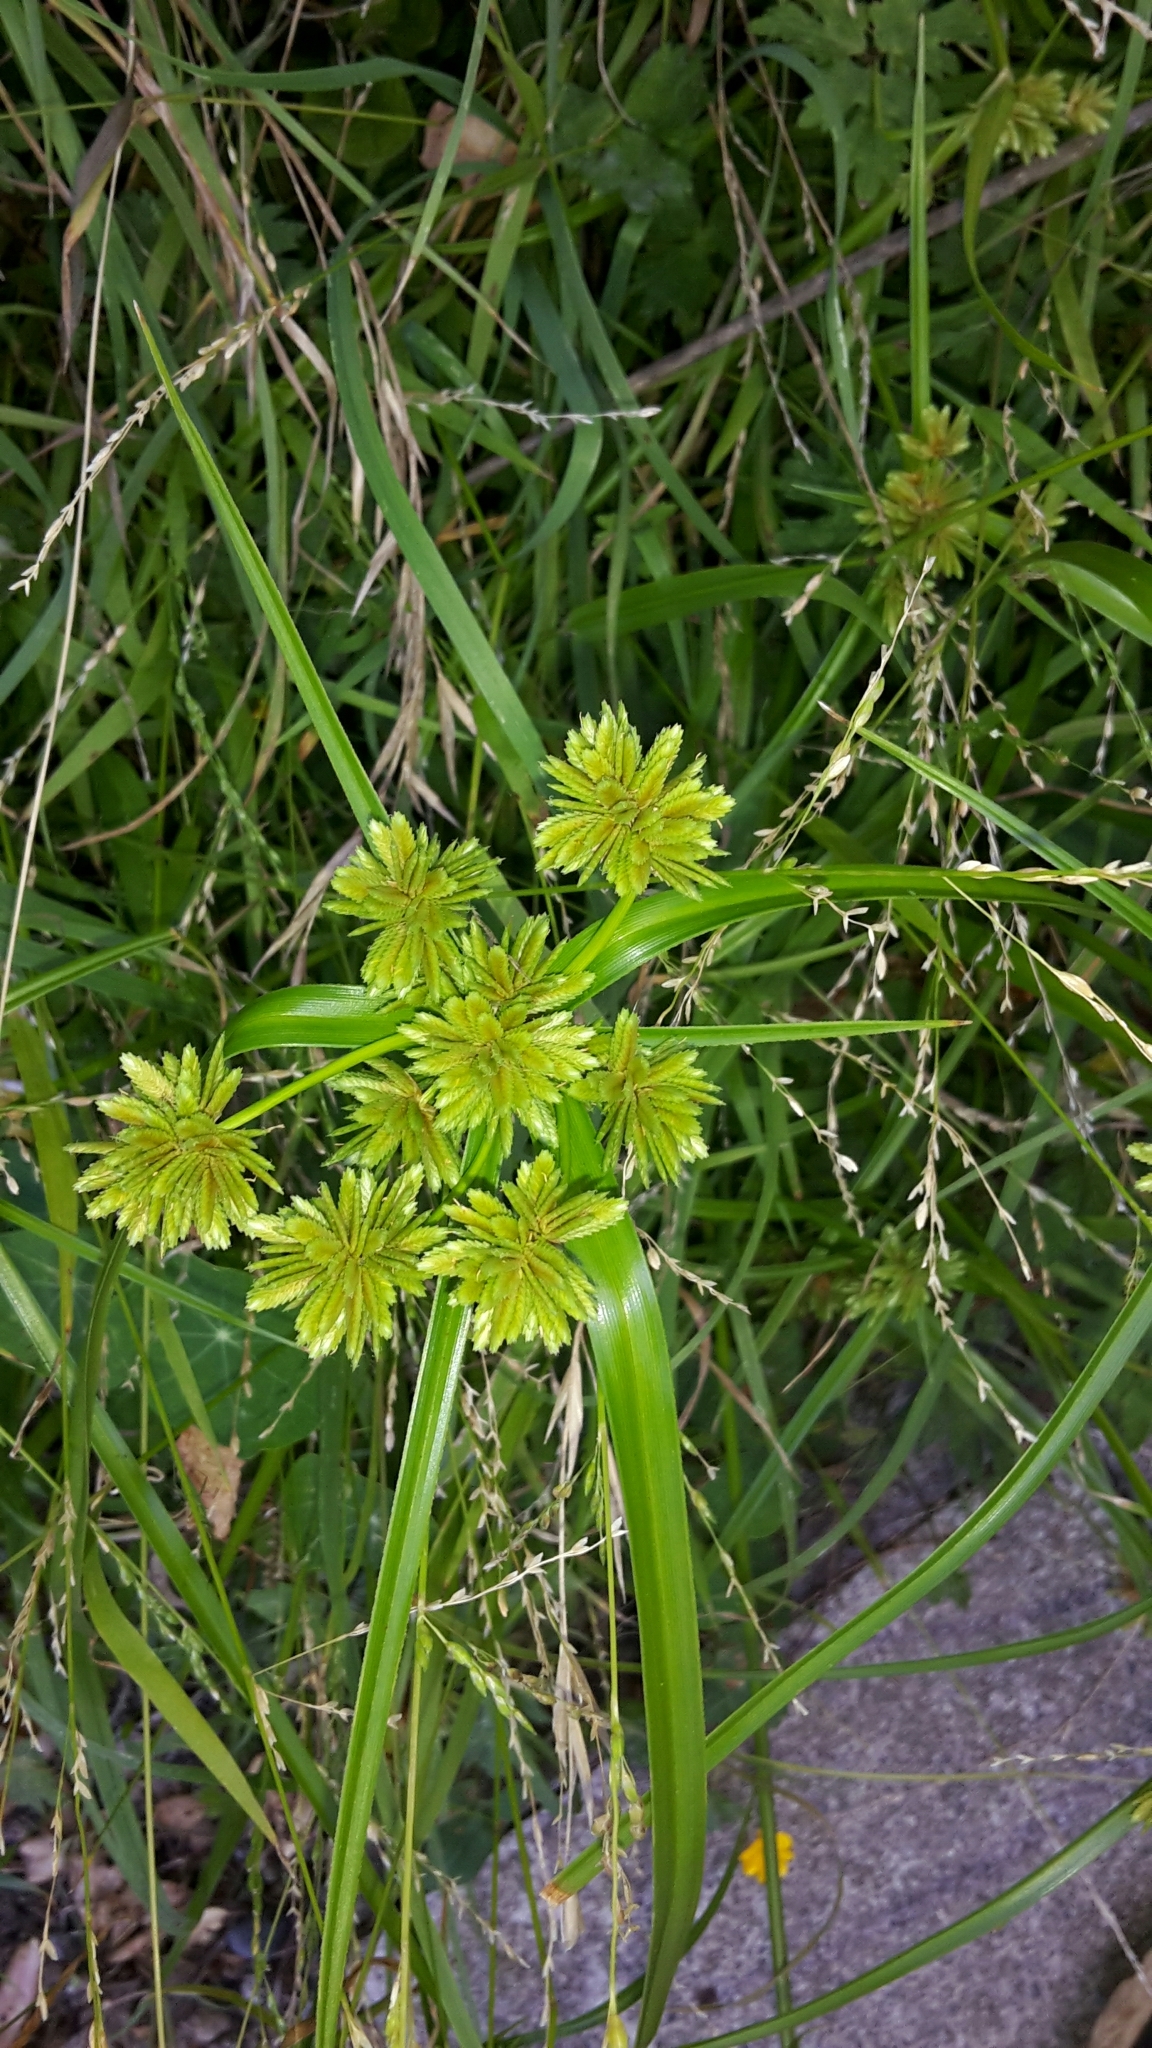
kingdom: Plantae
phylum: Tracheophyta
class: Liliopsida
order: Poales
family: Cyperaceae
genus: Cyperus
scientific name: Cyperus eragrostis
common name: Tall flatsedge
